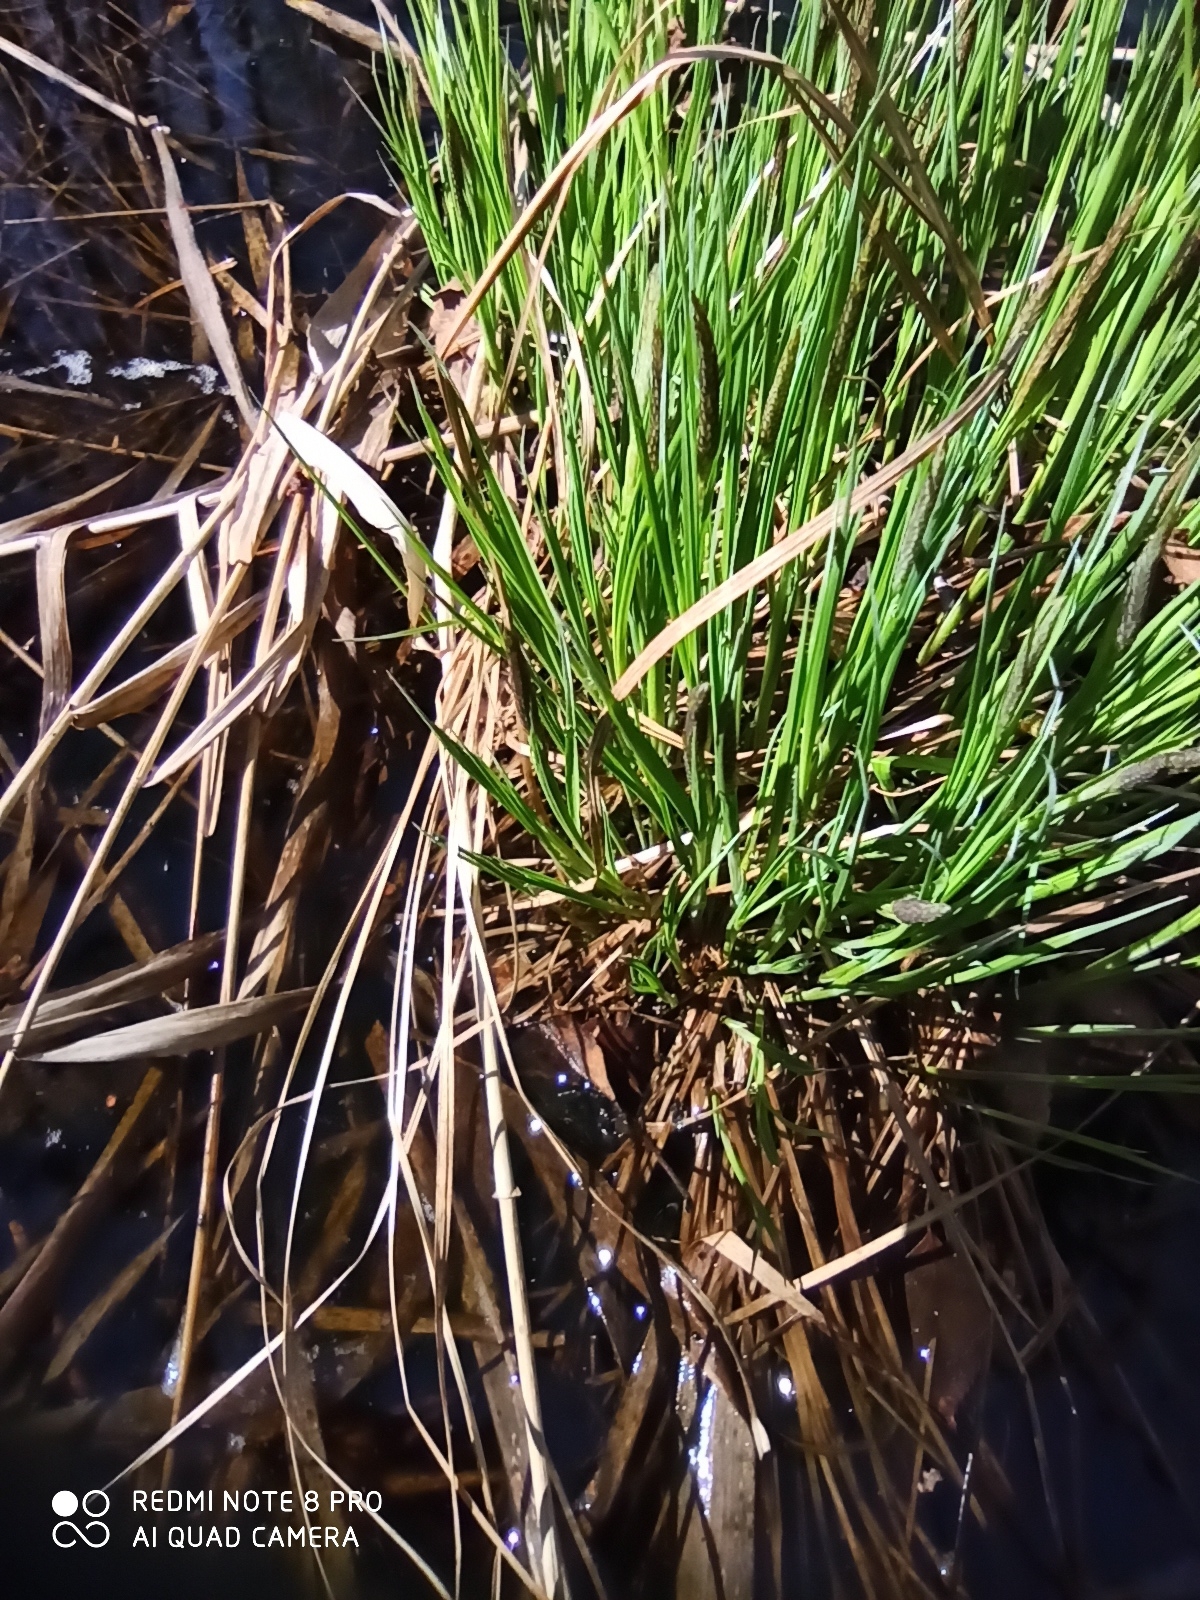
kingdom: Plantae
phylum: Tracheophyta
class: Liliopsida
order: Poales
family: Cyperaceae
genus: Carex
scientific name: Carex cespitosa
